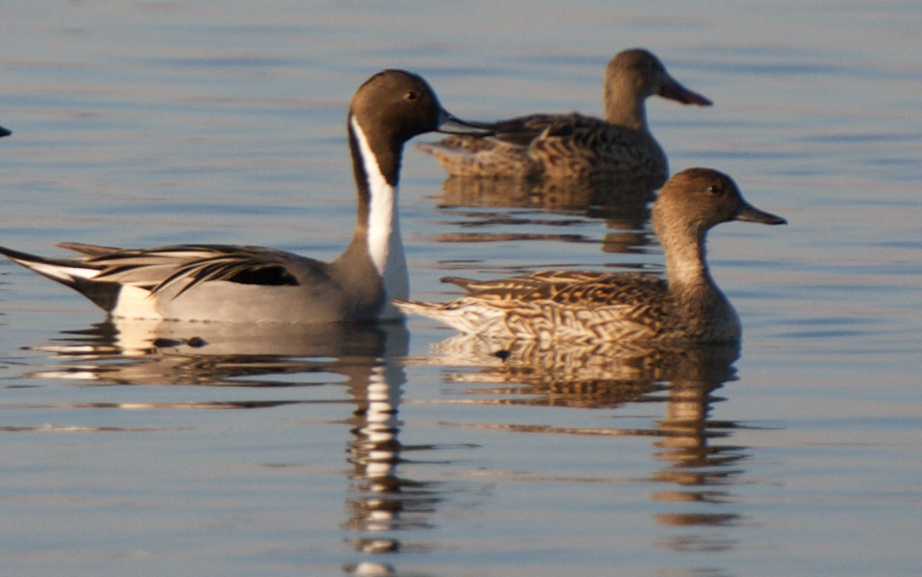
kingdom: Animalia
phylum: Chordata
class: Aves
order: Anseriformes
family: Anatidae
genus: Anas
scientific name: Anas acuta
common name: Northern pintail
